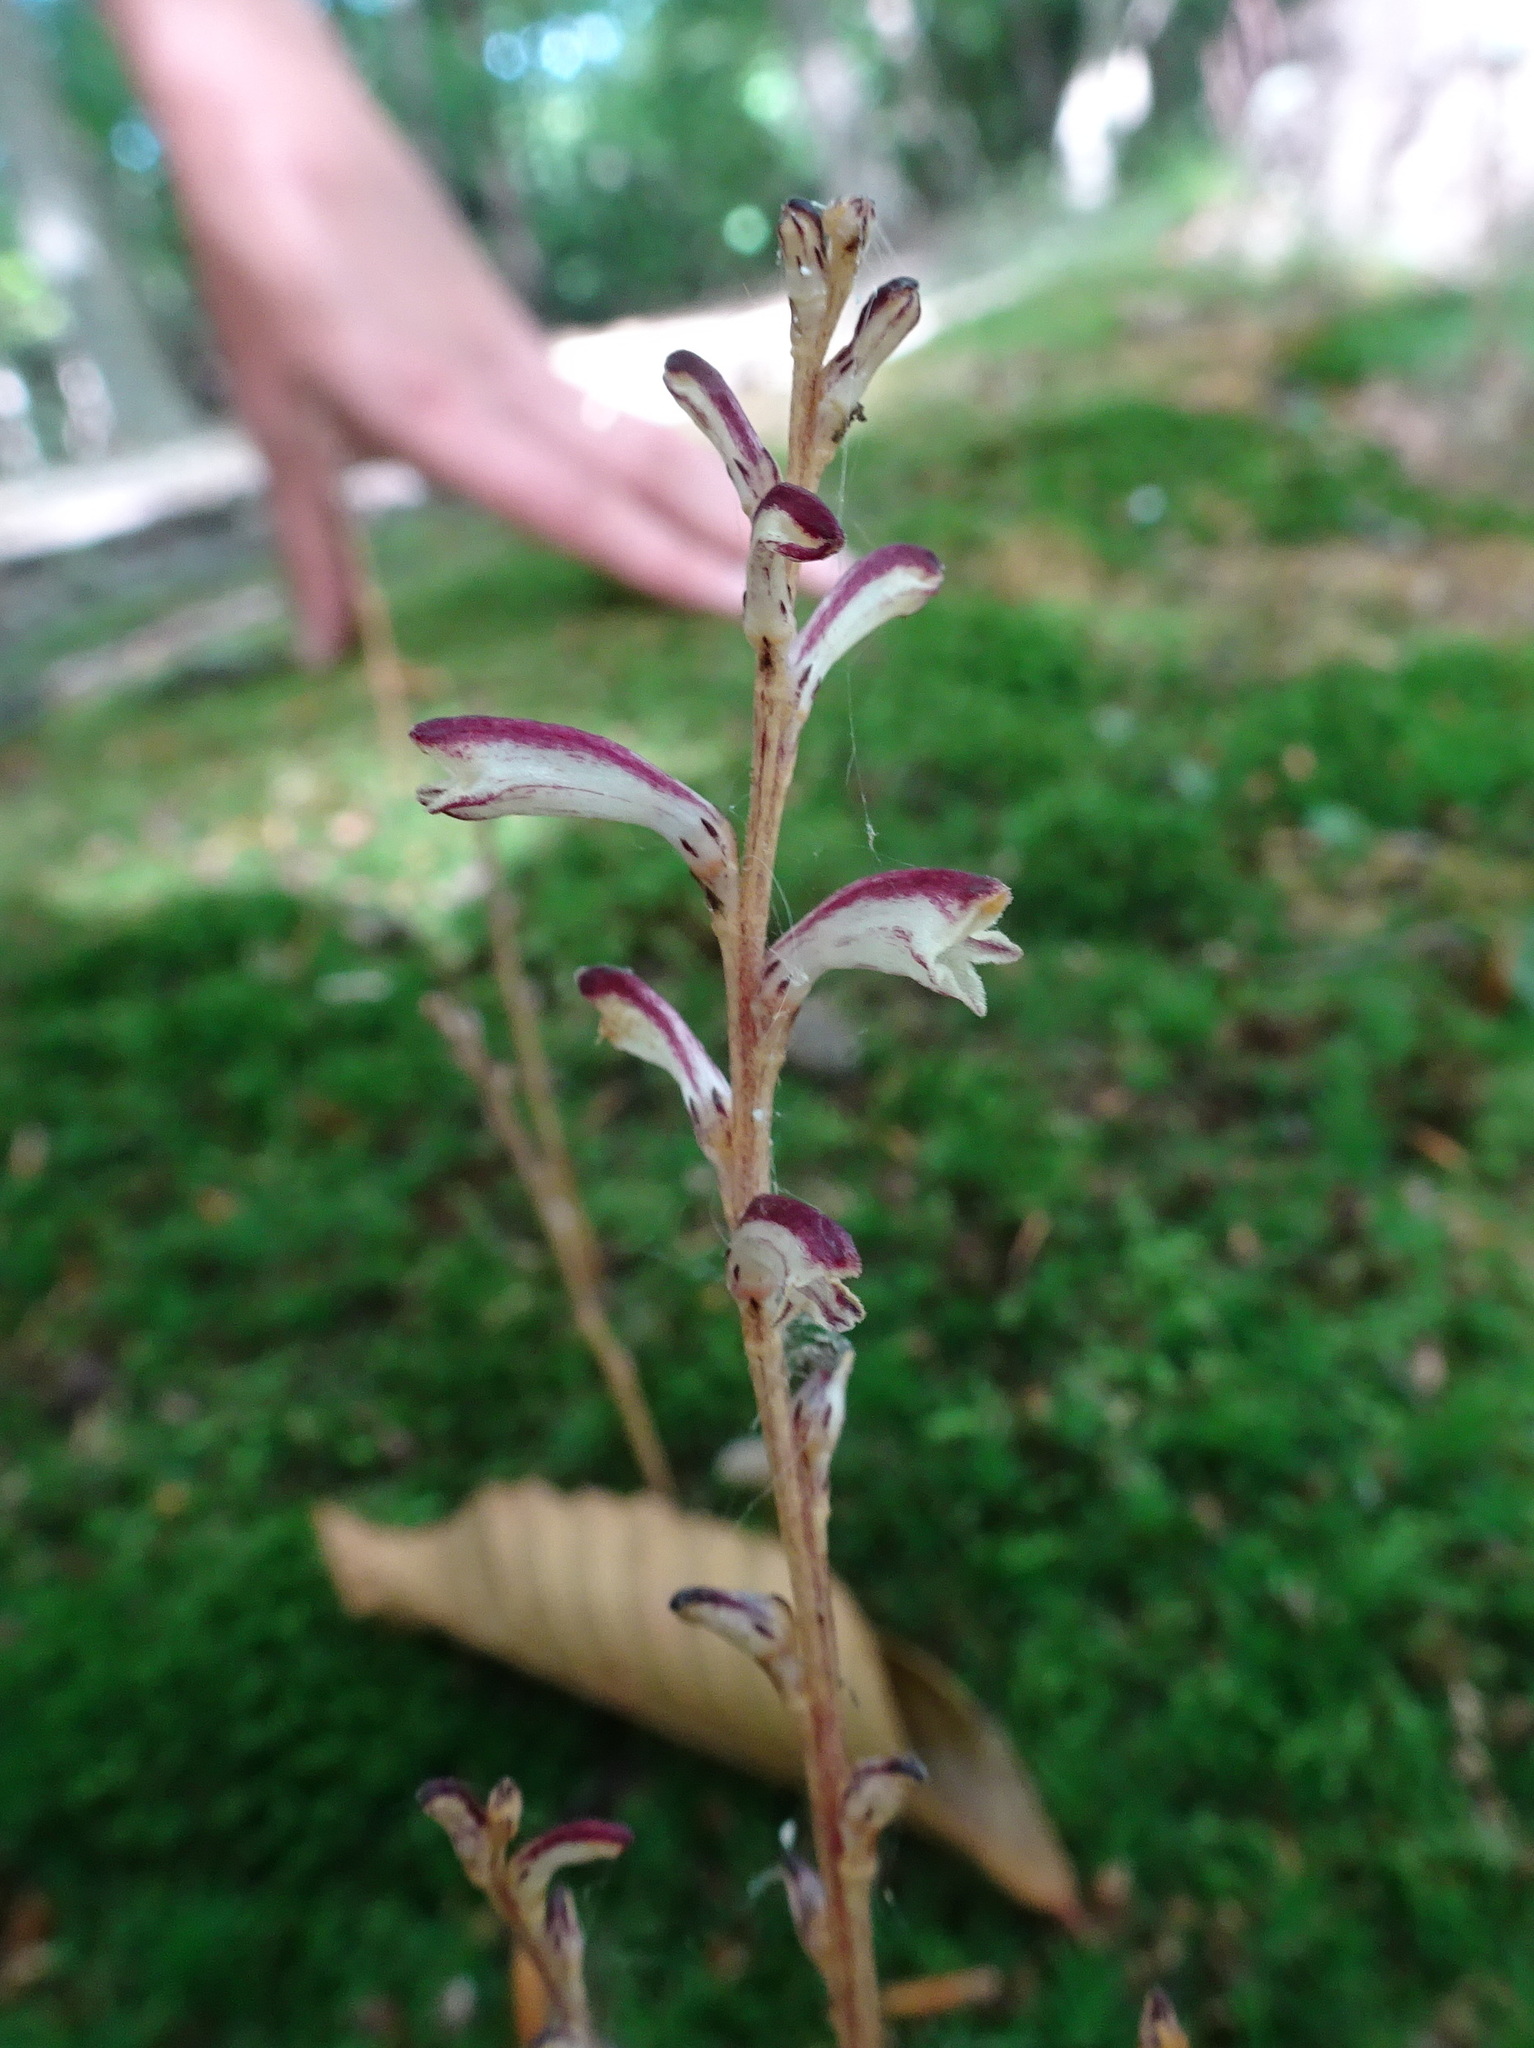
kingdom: Plantae
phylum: Tracheophyta
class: Magnoliopsida
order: Lamiales
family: Orobanchaceae
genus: Epifagus
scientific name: Epifagus virginiana
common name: Beechdrops
